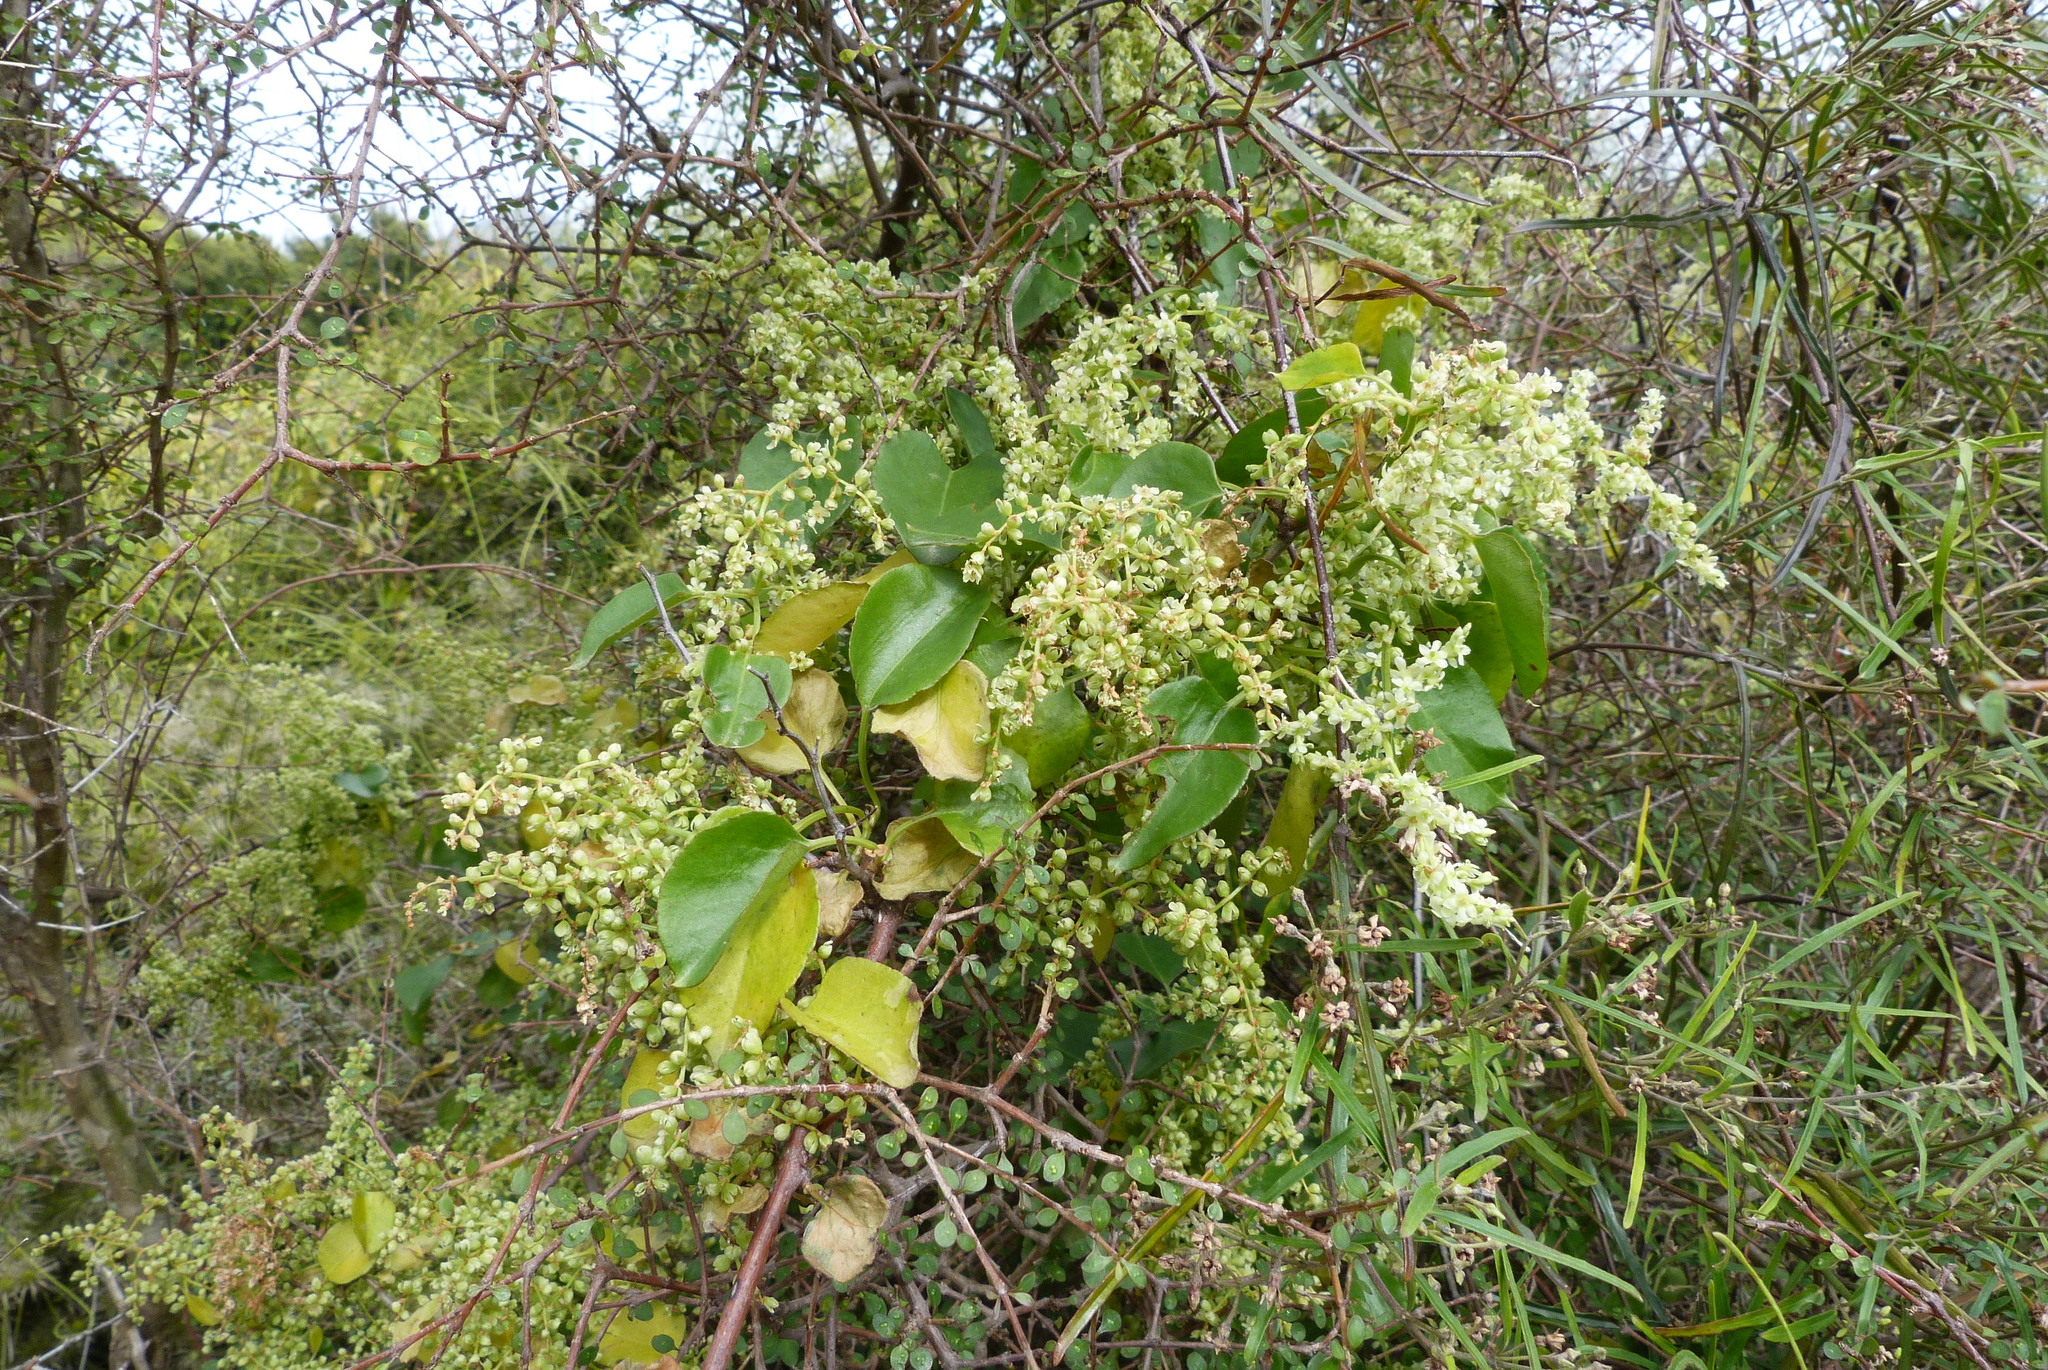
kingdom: Plantae
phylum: Tracheophyta
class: Magnoliopsida
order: Caryophyllales
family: Polygonaceae
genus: Muehlenbeckia
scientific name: Muehlenbeckia australis
